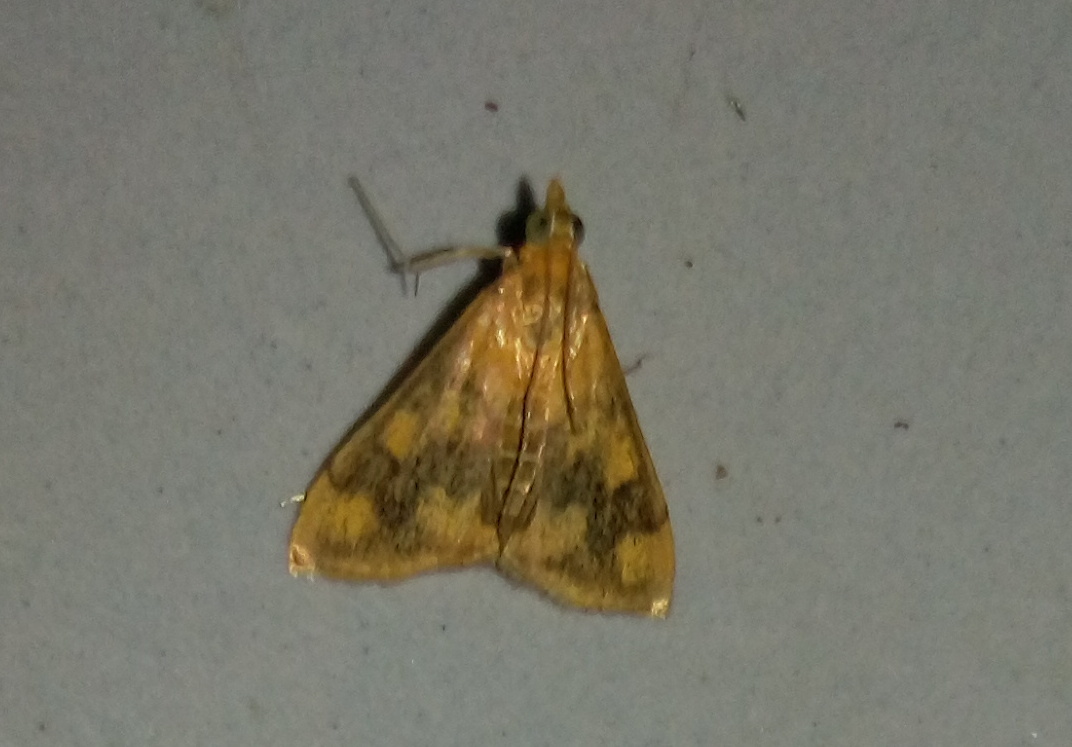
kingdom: Animalia
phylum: Arthropoda
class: Insecta
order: Lepidoptera
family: Crambidae
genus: Pyrausta
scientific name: Pyrausta phoenicealis
